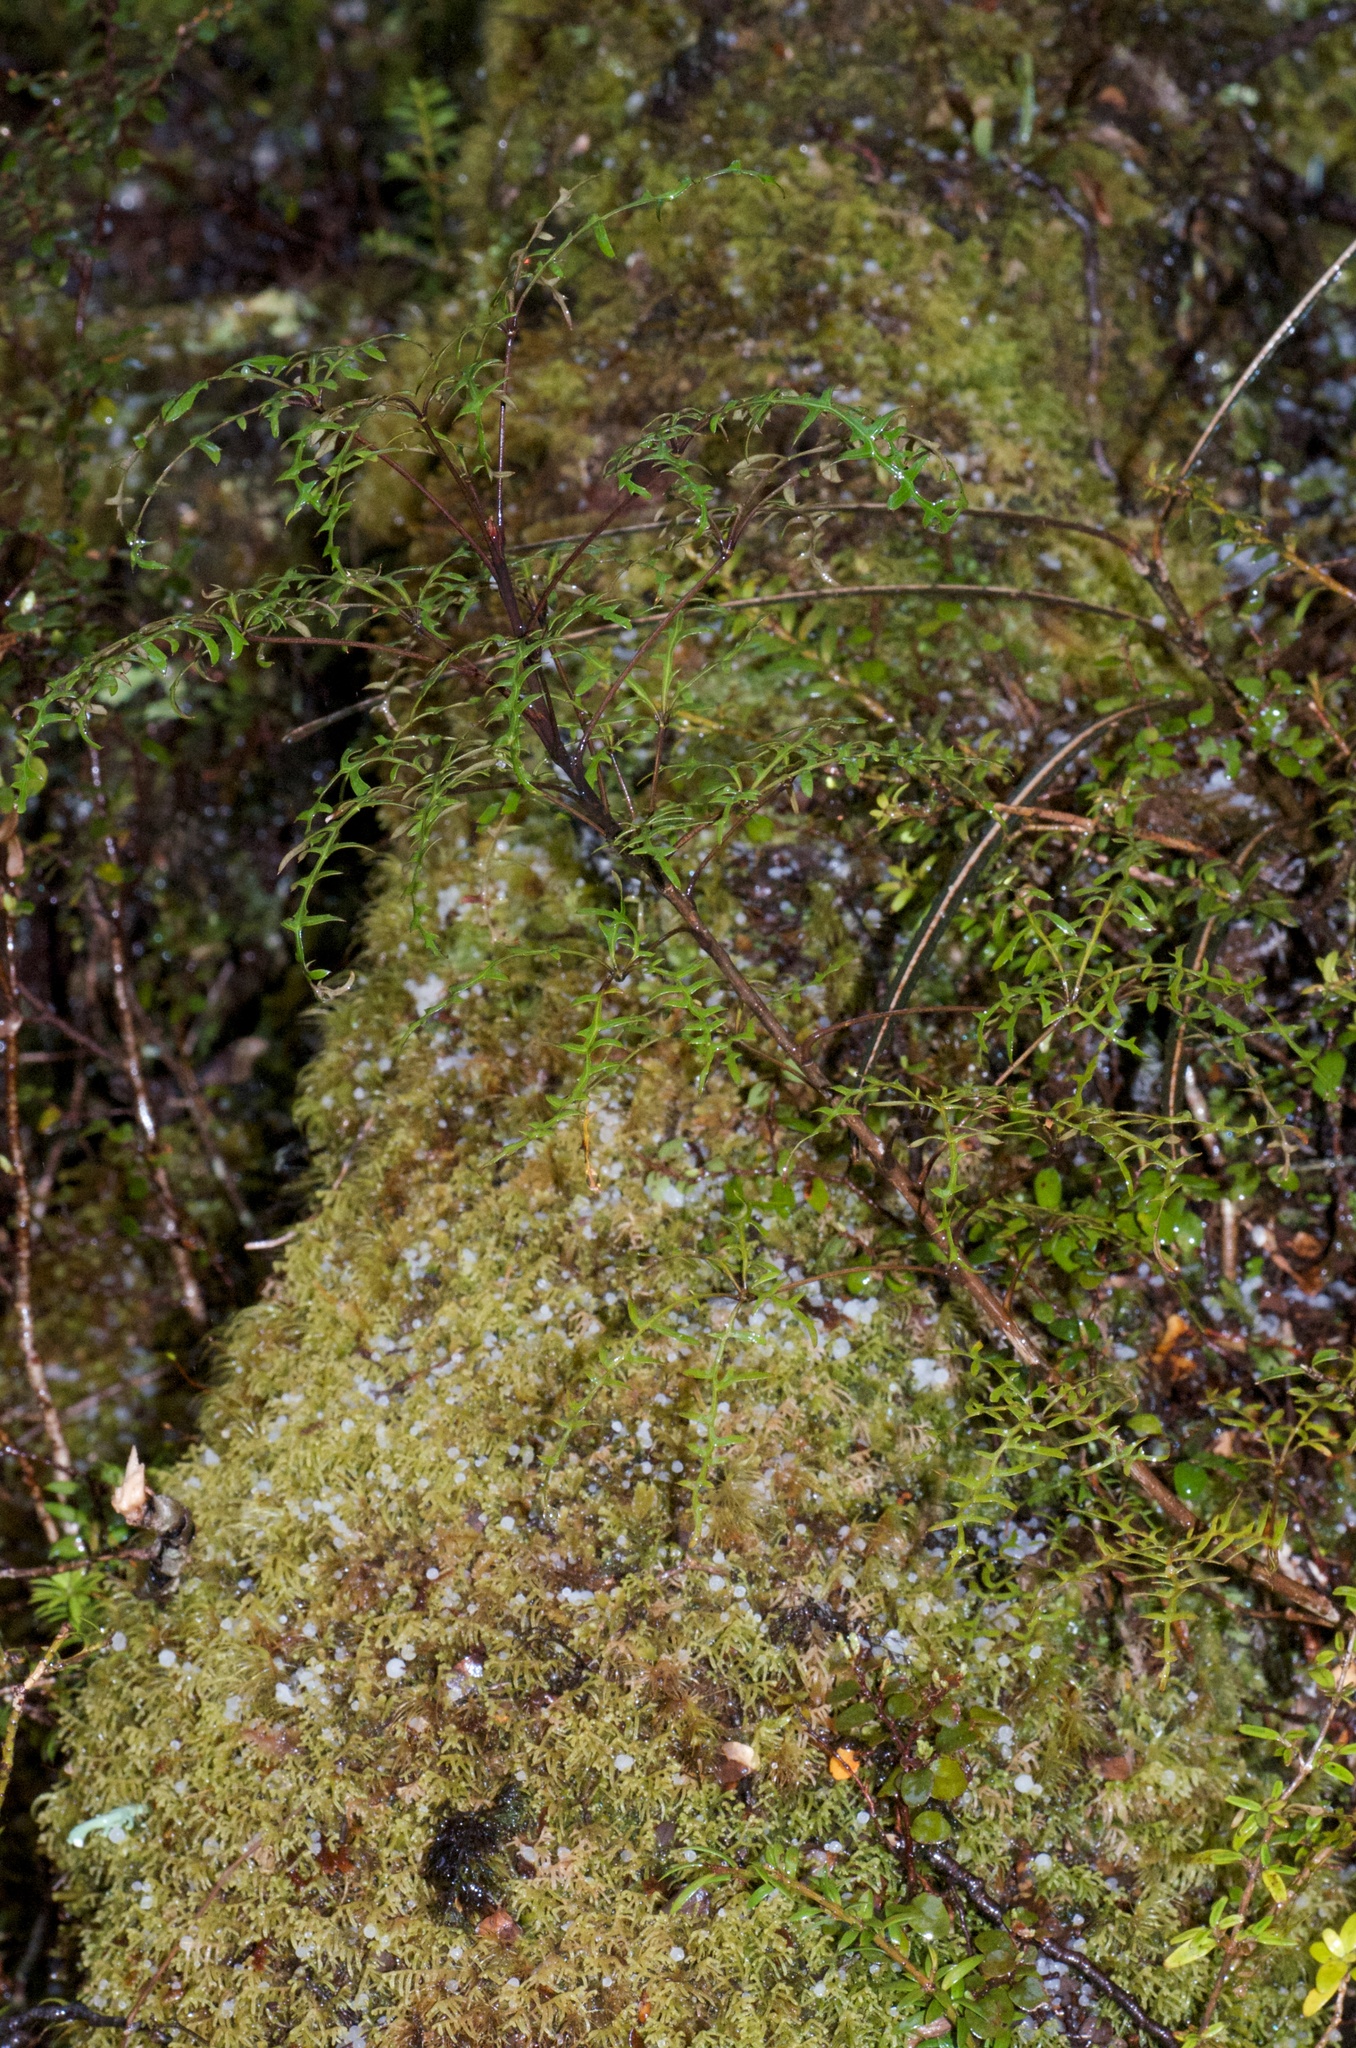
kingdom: Plantae
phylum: Tracheophyta
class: Magnoliopsida
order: Apiales
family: Araliaceae
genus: Raukaua
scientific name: Raukaua simplex
